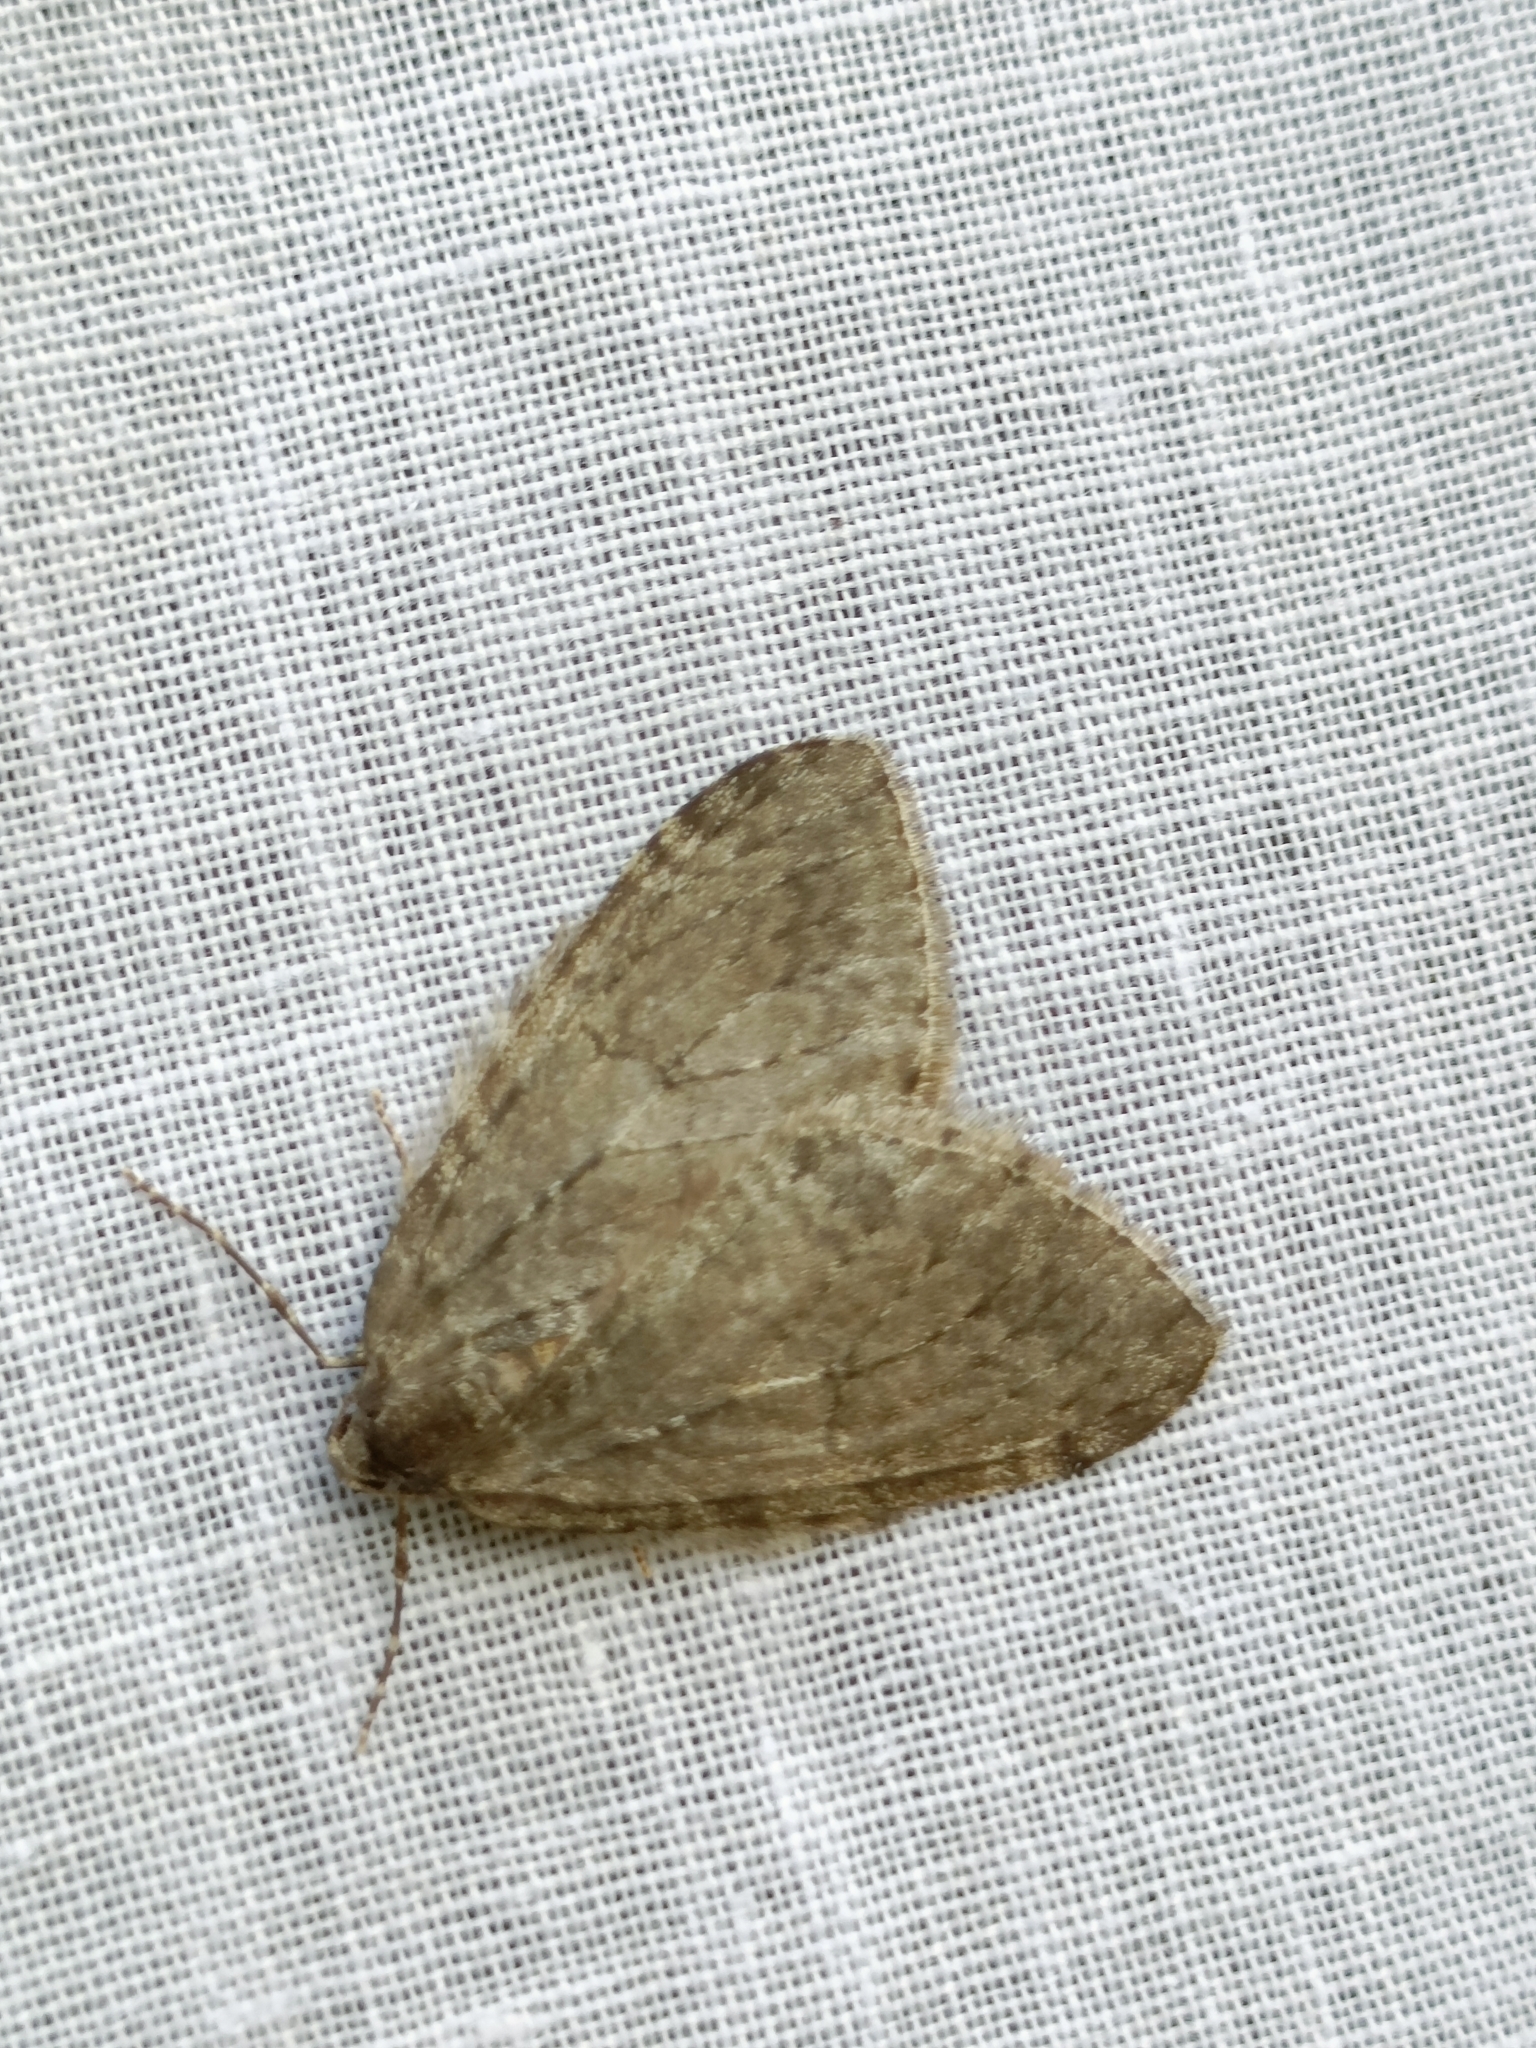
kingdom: Animalia
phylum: Arthropoda
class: Insecta
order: Lepidoptera
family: Geometridae
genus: Epirrita
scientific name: Epirrita
